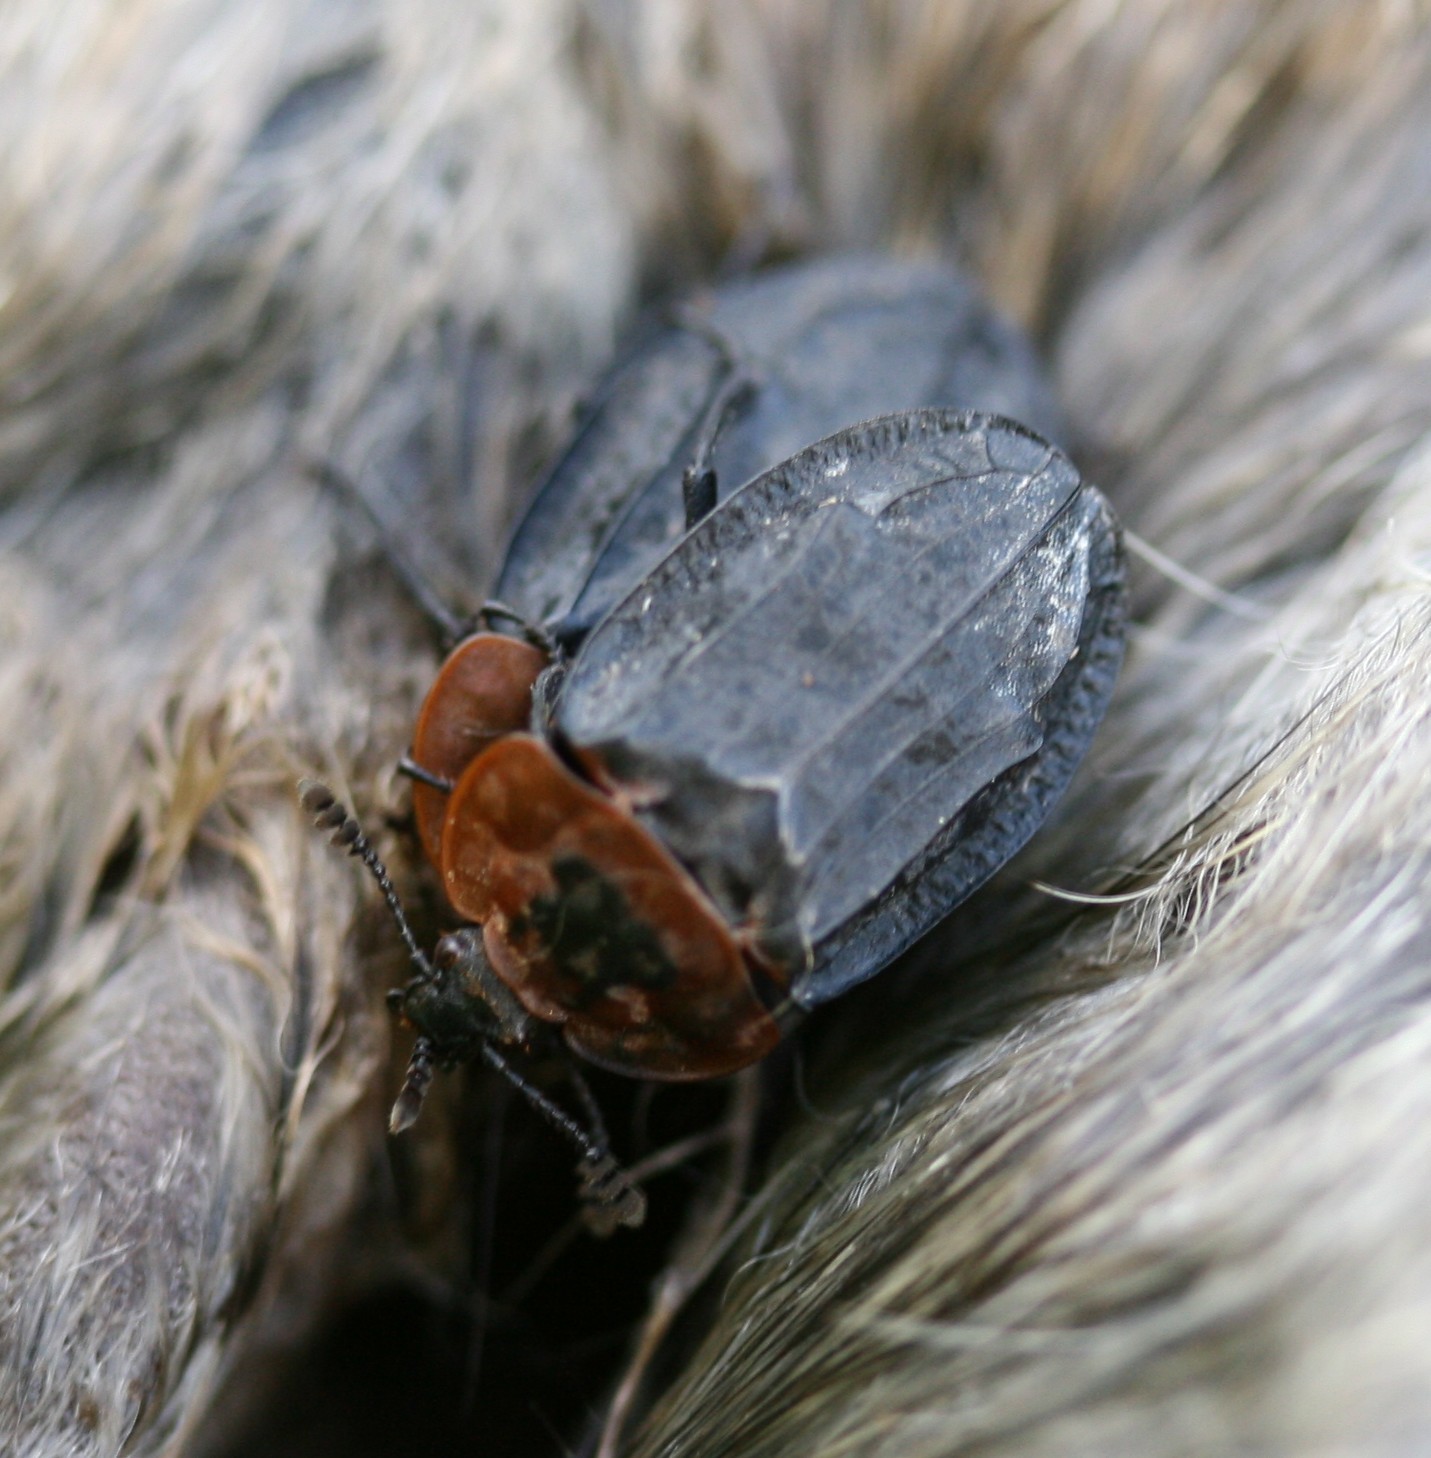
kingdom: Animalia
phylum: Arthropoda
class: Insecta
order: Coleoptera
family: Staphylinidae
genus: Oiceoptoma
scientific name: Oiceoptoma thoracicum
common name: Red-breasted carrion beetle
